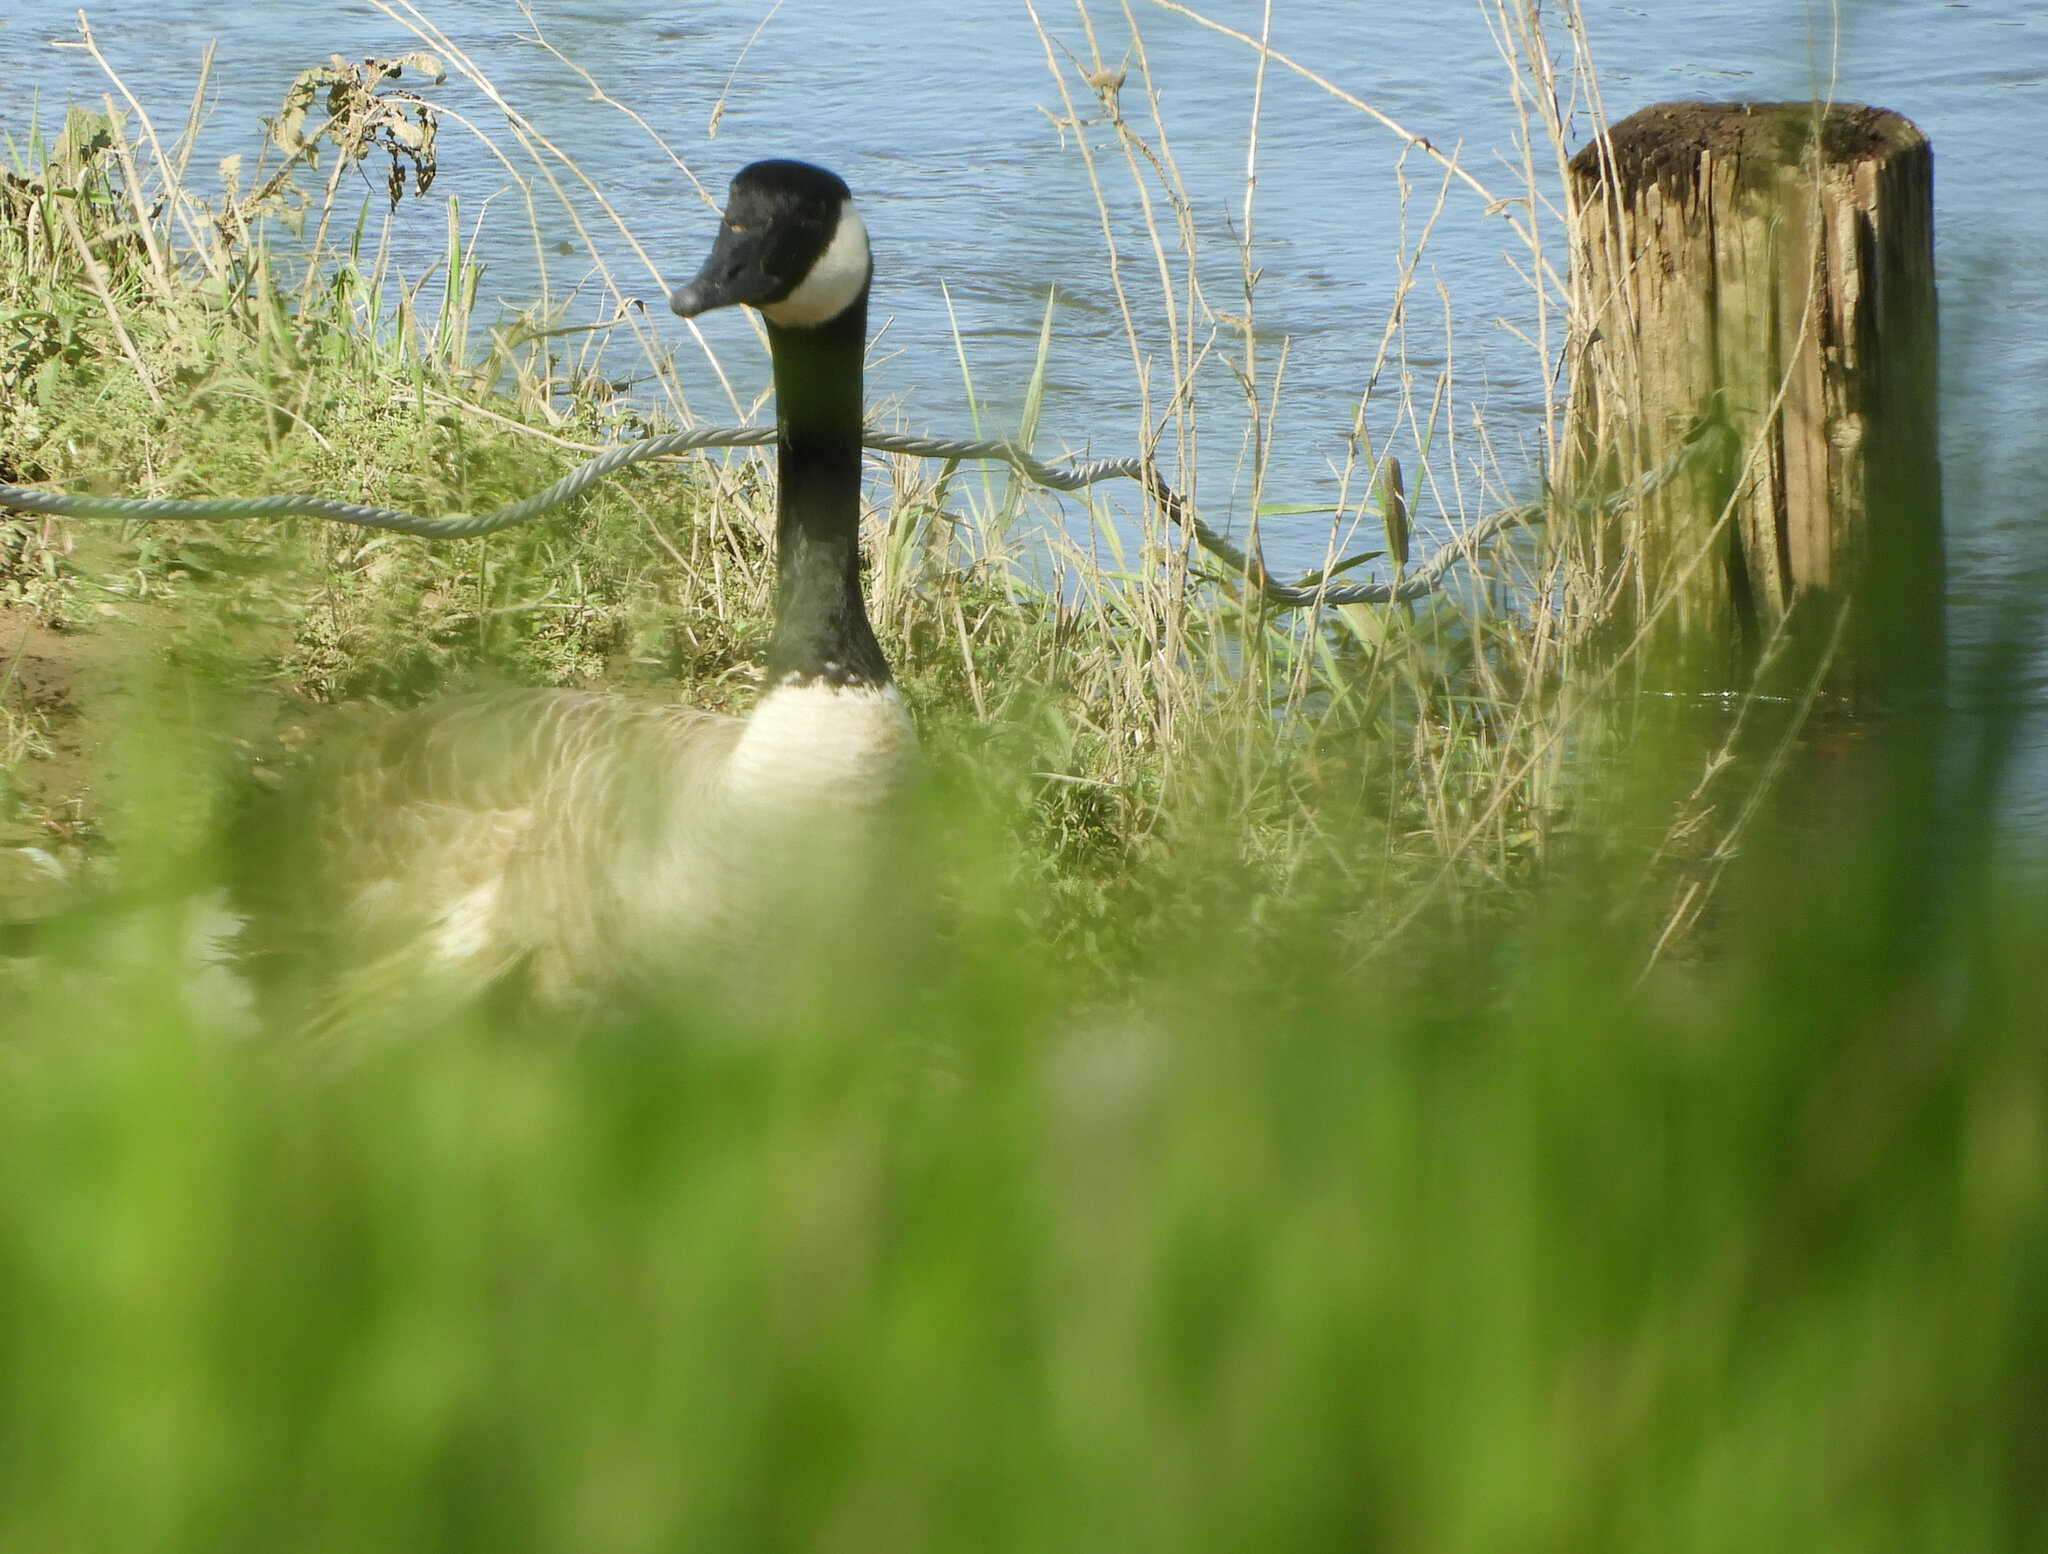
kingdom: Animalia
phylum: Chordata
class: Aves
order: Anseriformes
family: Anatidae
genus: Branta
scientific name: Branta canadensis
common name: Canada goose
